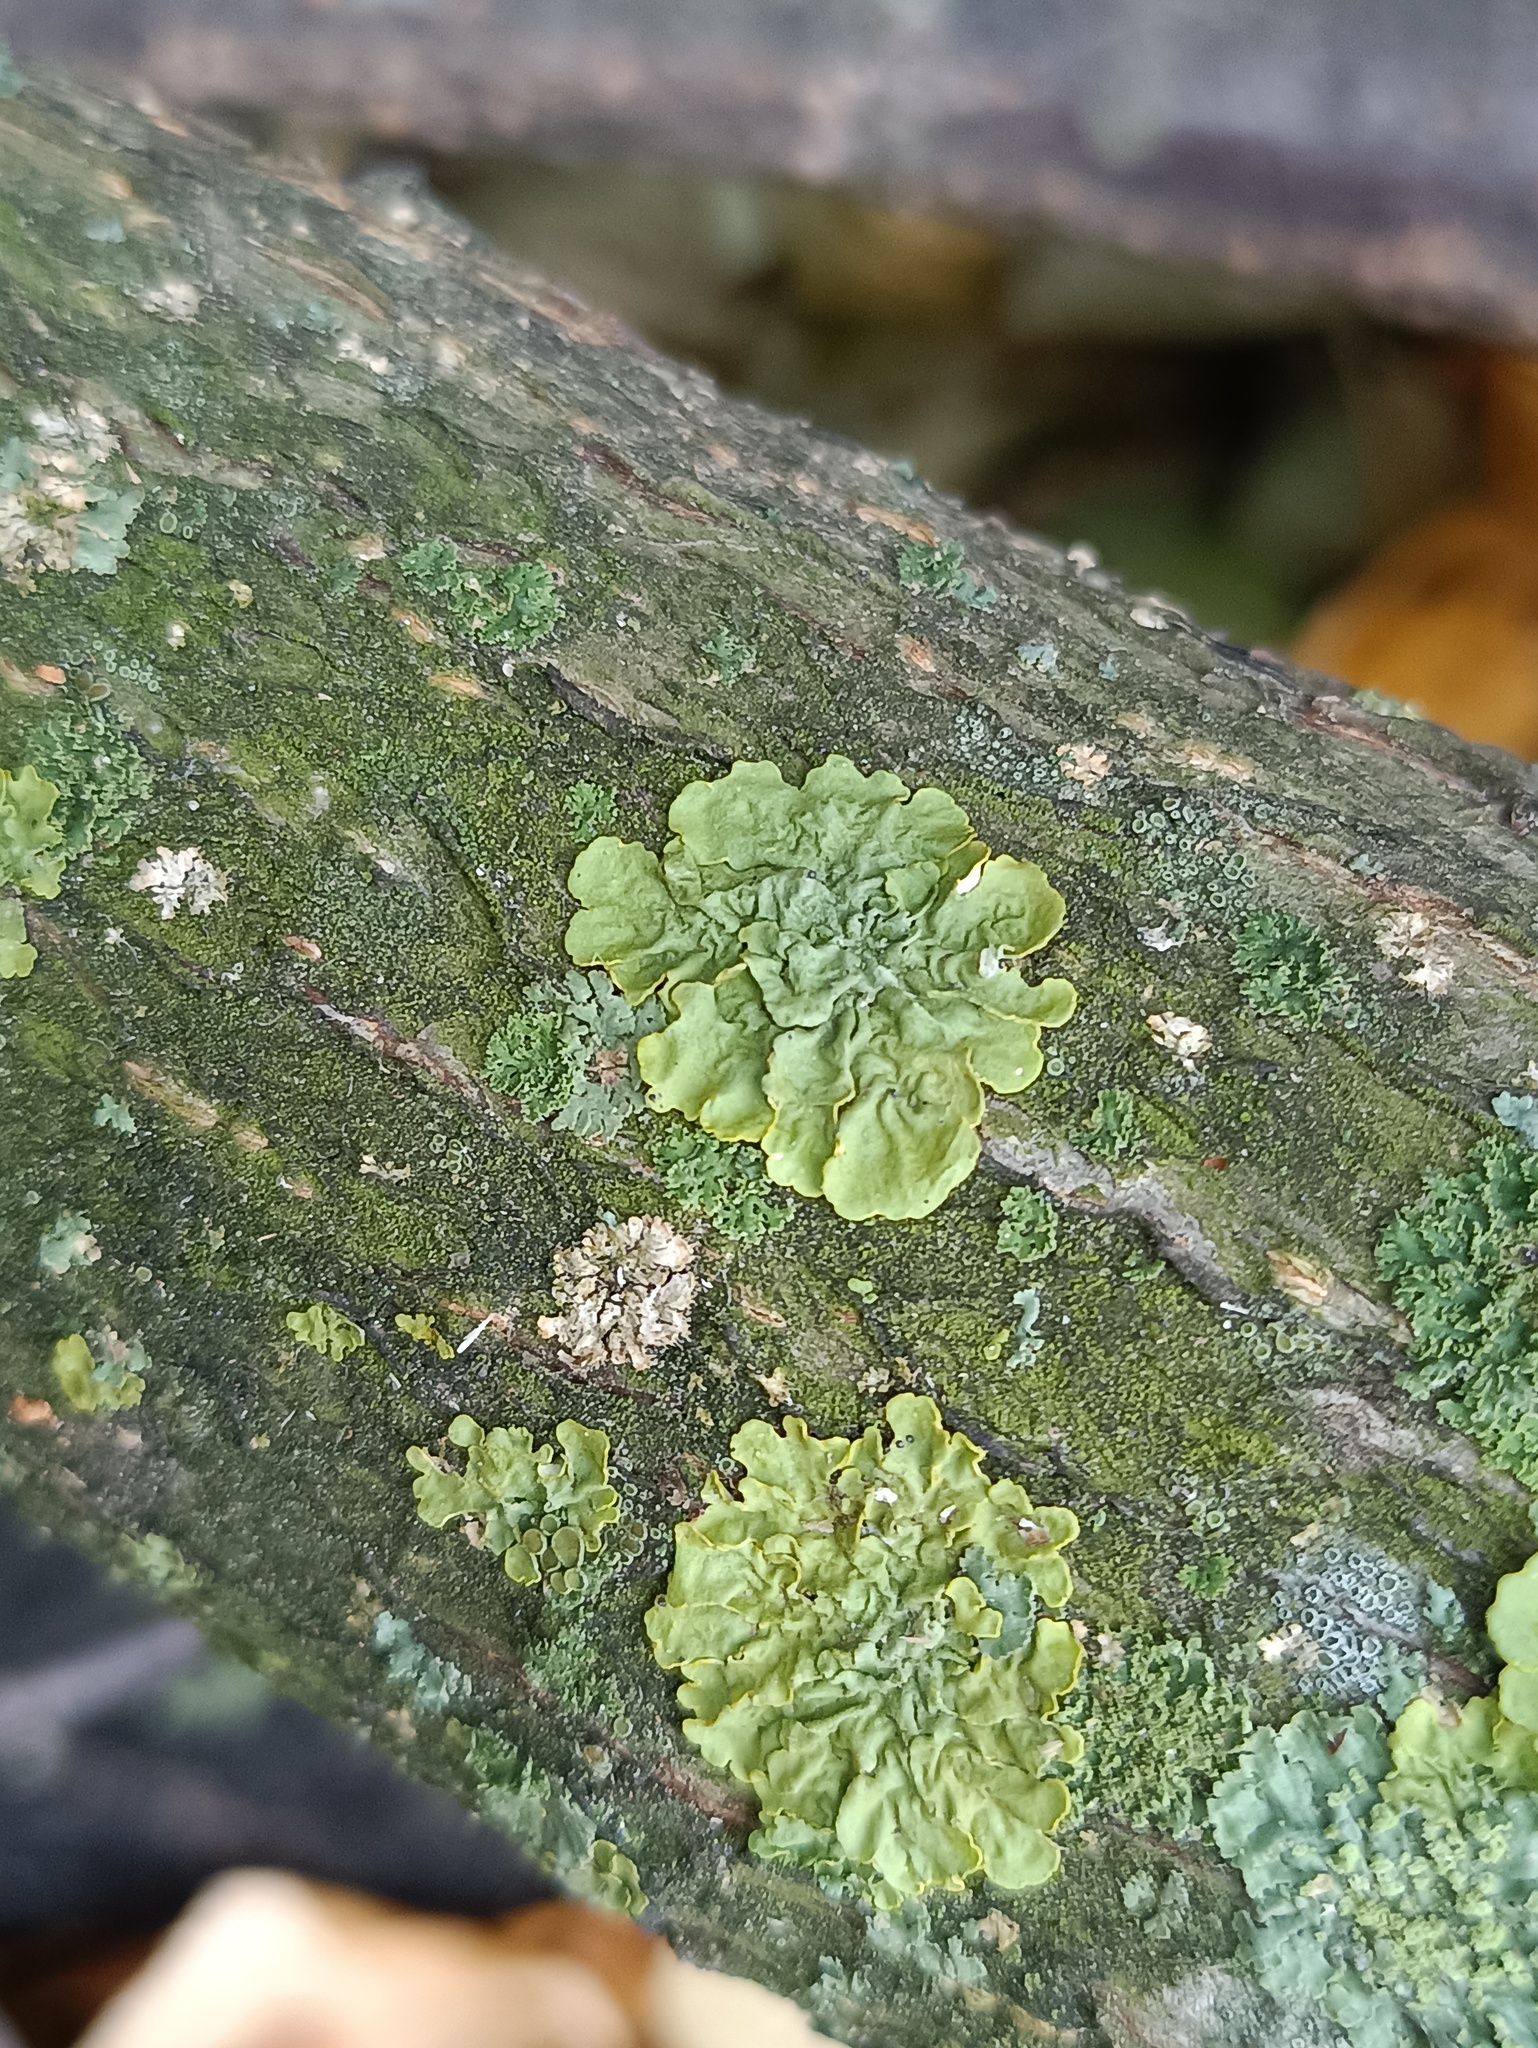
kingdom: Fungi
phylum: Ascomycota
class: Lecanoromycetes
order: Teloschistales
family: Teloschistaceae
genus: Xanthoria
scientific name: Xanthoria parietina
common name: Common orange lichen
